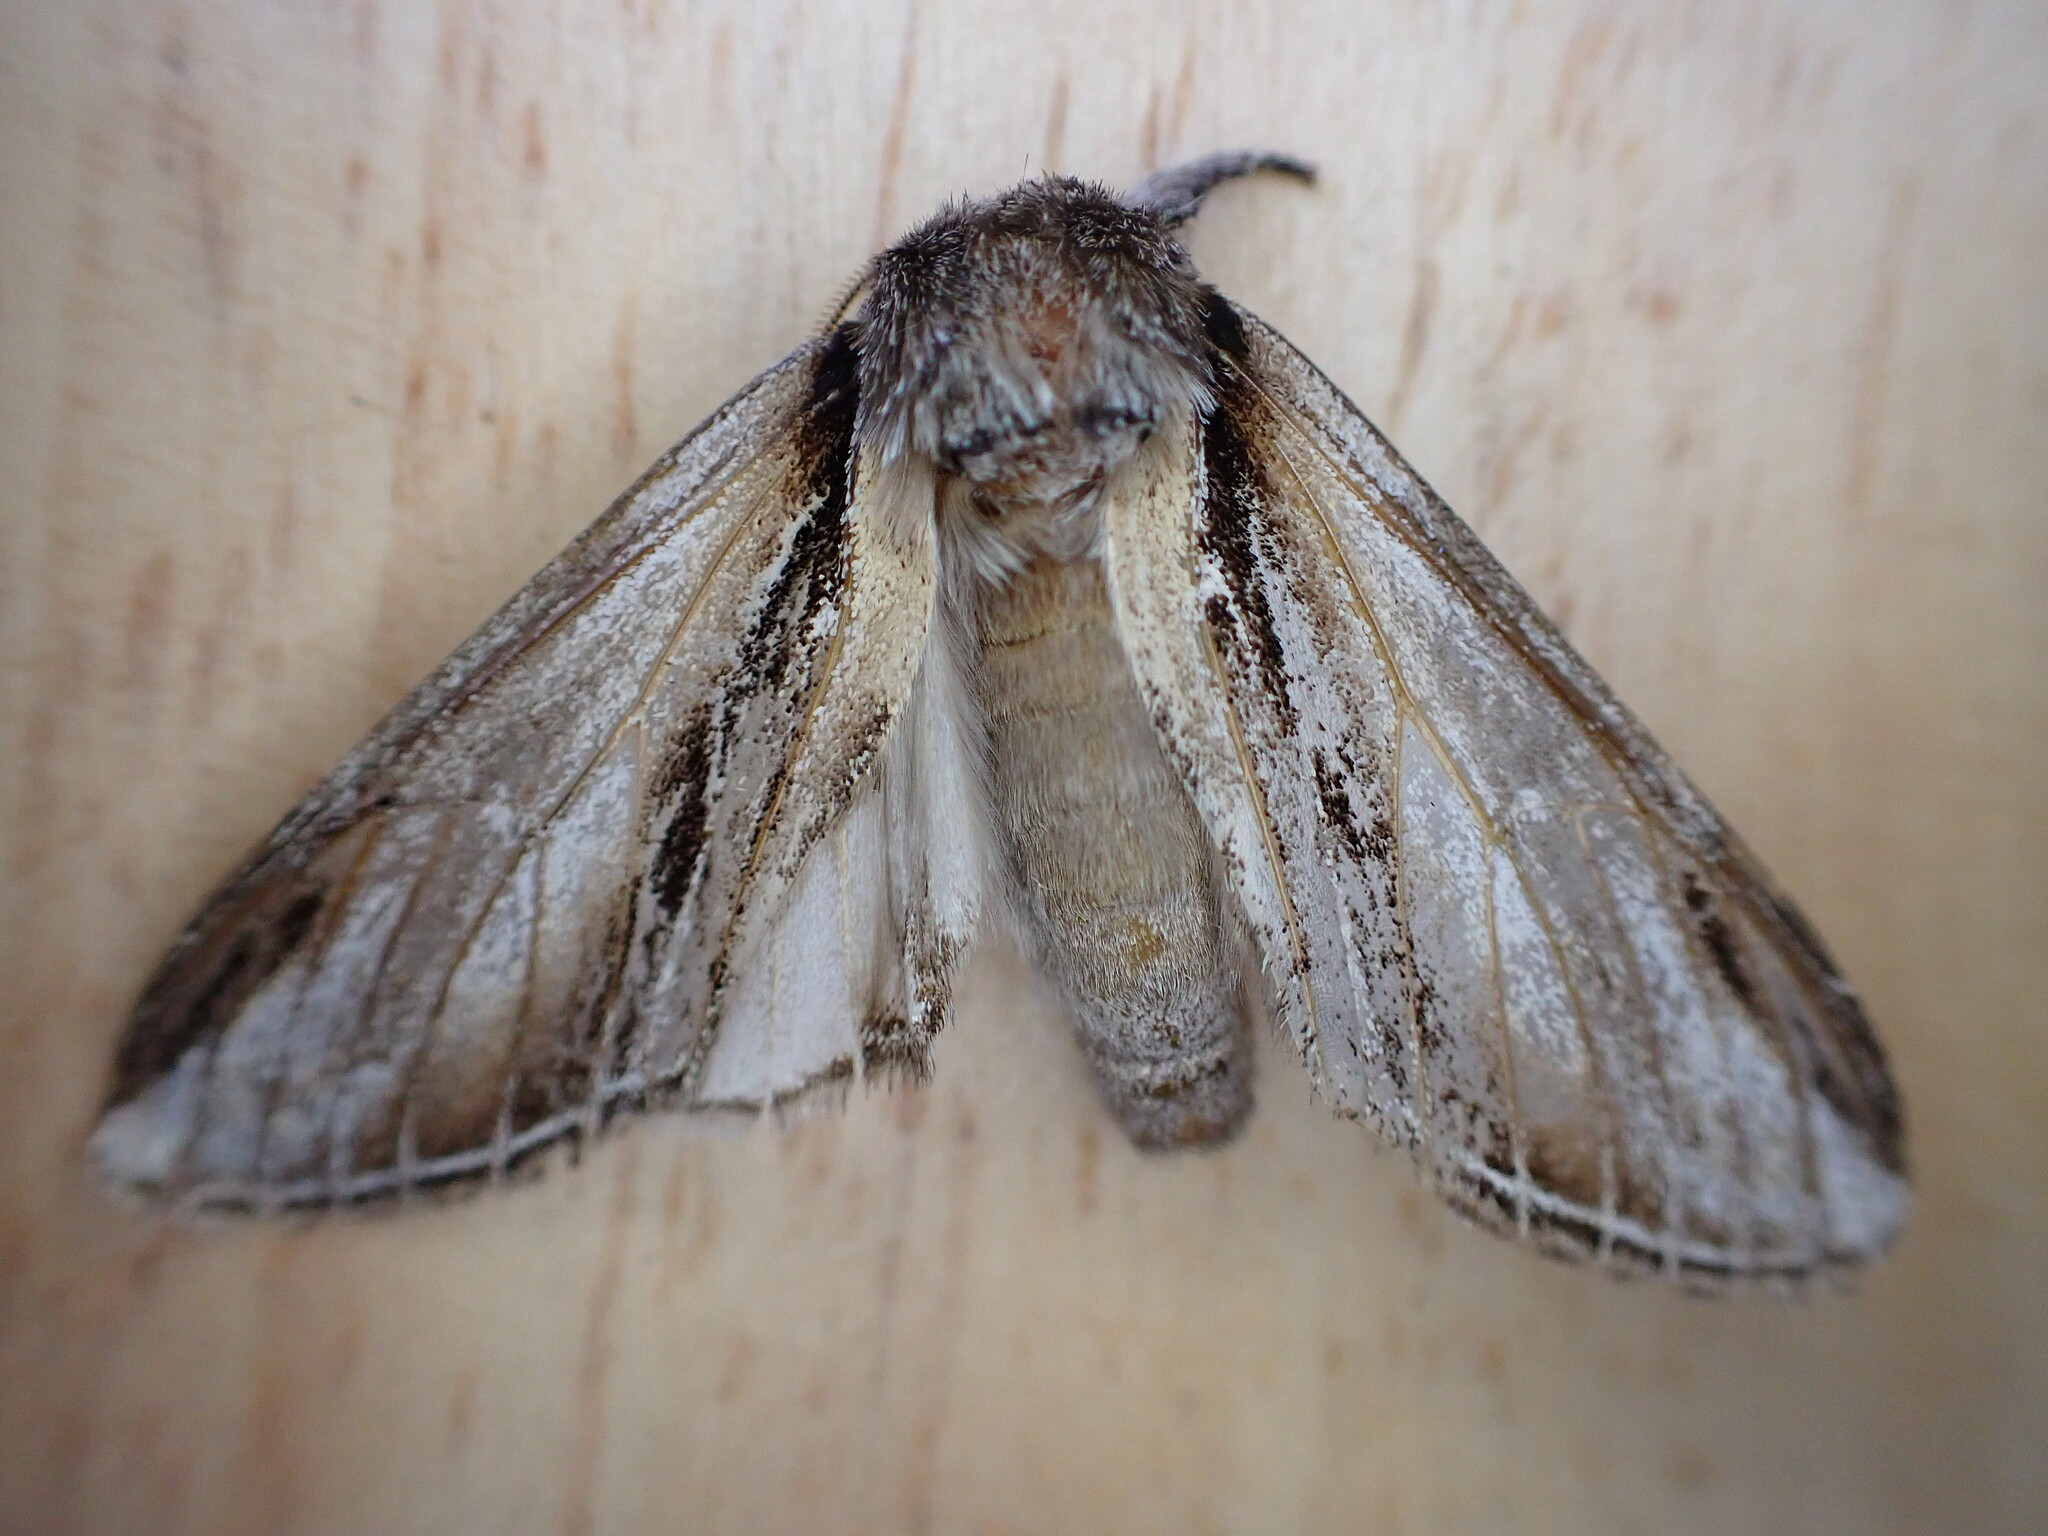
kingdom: Animalia
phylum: Arthropoda
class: Insecta
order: Lepidoptera
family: Notodontidae
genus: Pheosia
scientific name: Pheosia tremula
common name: Swallow prominent
